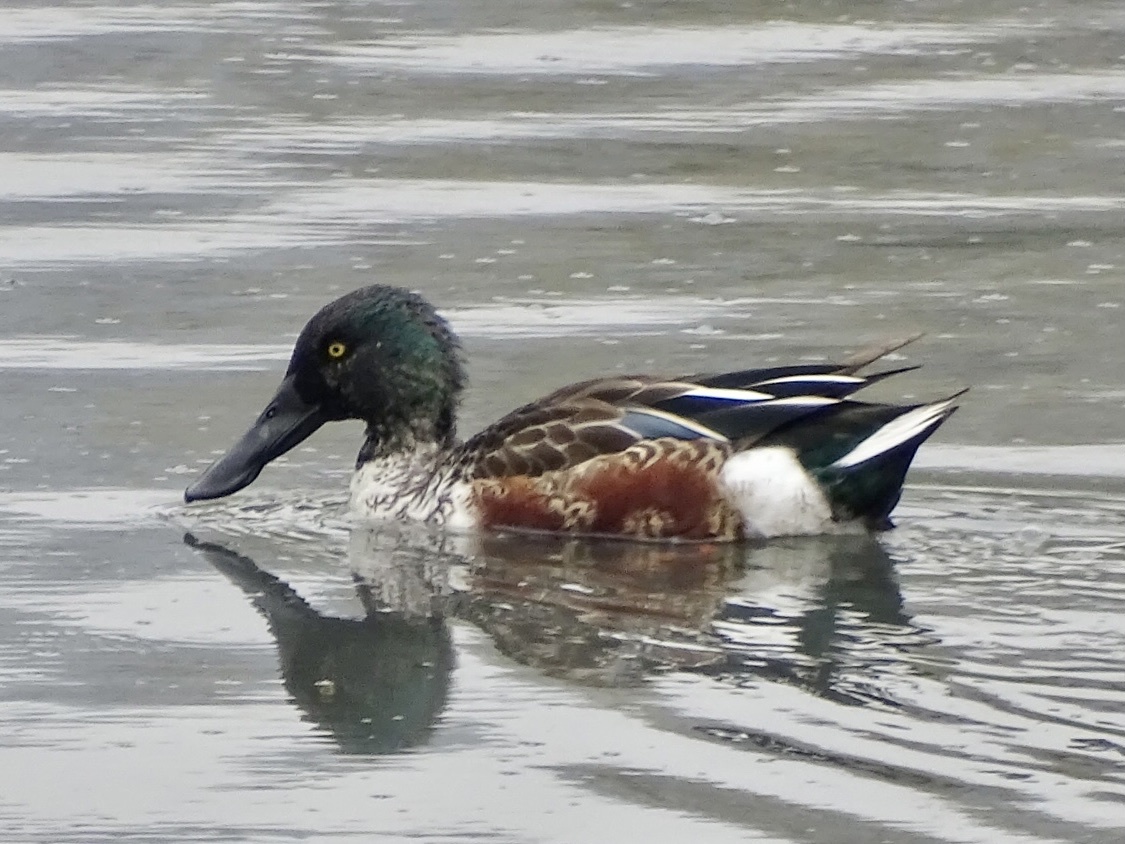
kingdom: Animalia
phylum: Chordata
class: Aves
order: Anseriformes
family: Anatidae
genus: Spatula
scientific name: Spatula clypeata
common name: Northern shoveler
